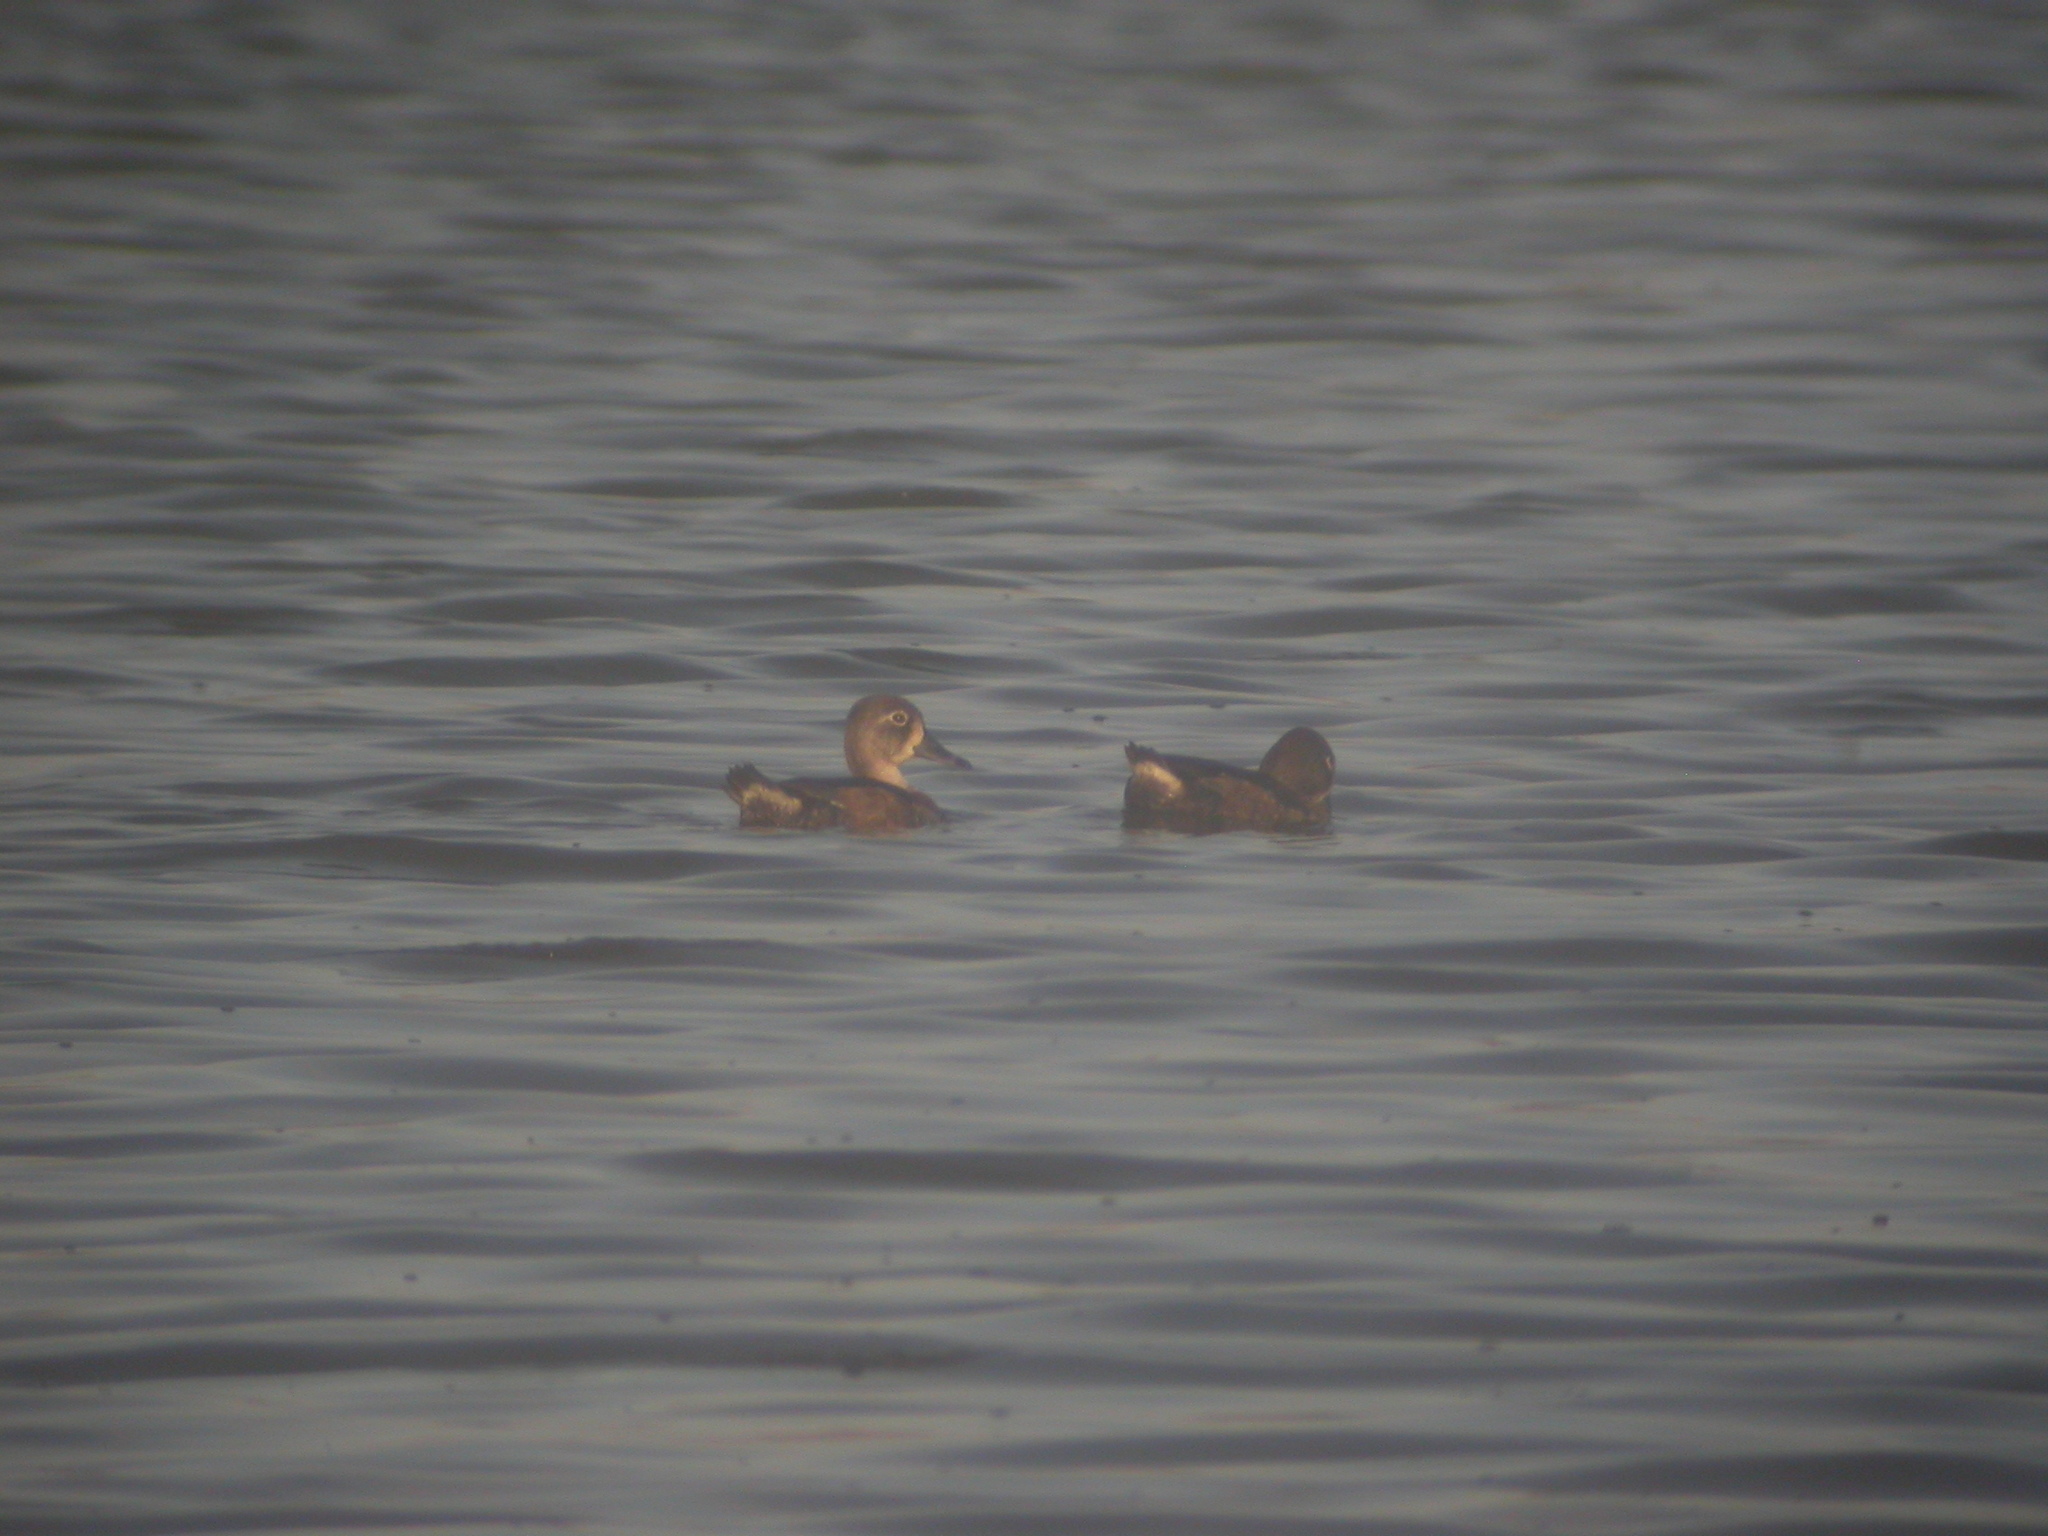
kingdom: Animalia
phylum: Chordata
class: Aves
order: Anseriformes
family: Anatidae
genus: Aythya
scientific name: Aythya collaris
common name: Ring-necked duck
